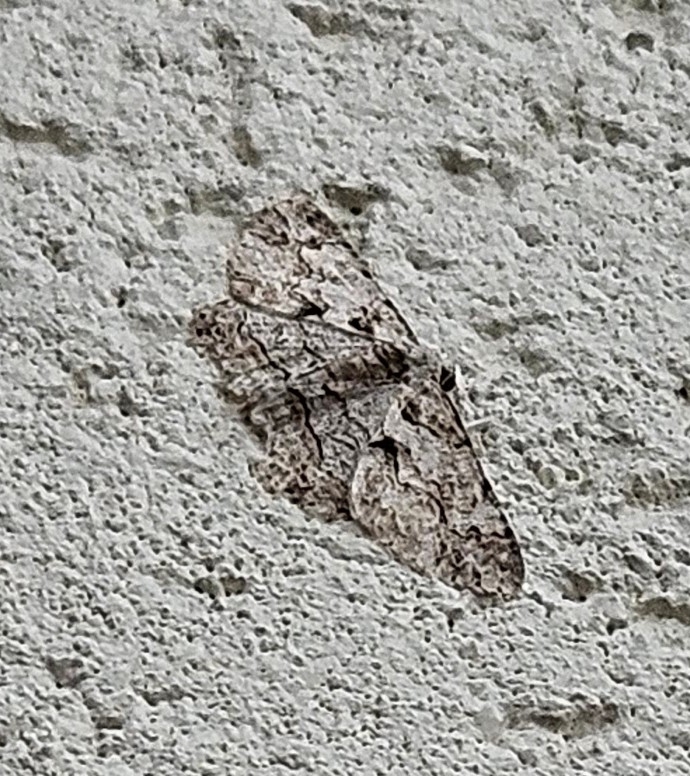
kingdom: Animalia
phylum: Arthropoda
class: Insecta
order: Lepidoptera
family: Geometridae
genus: Iridopsis
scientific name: Iridopsis defectaria
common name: Brown-shaded gray
